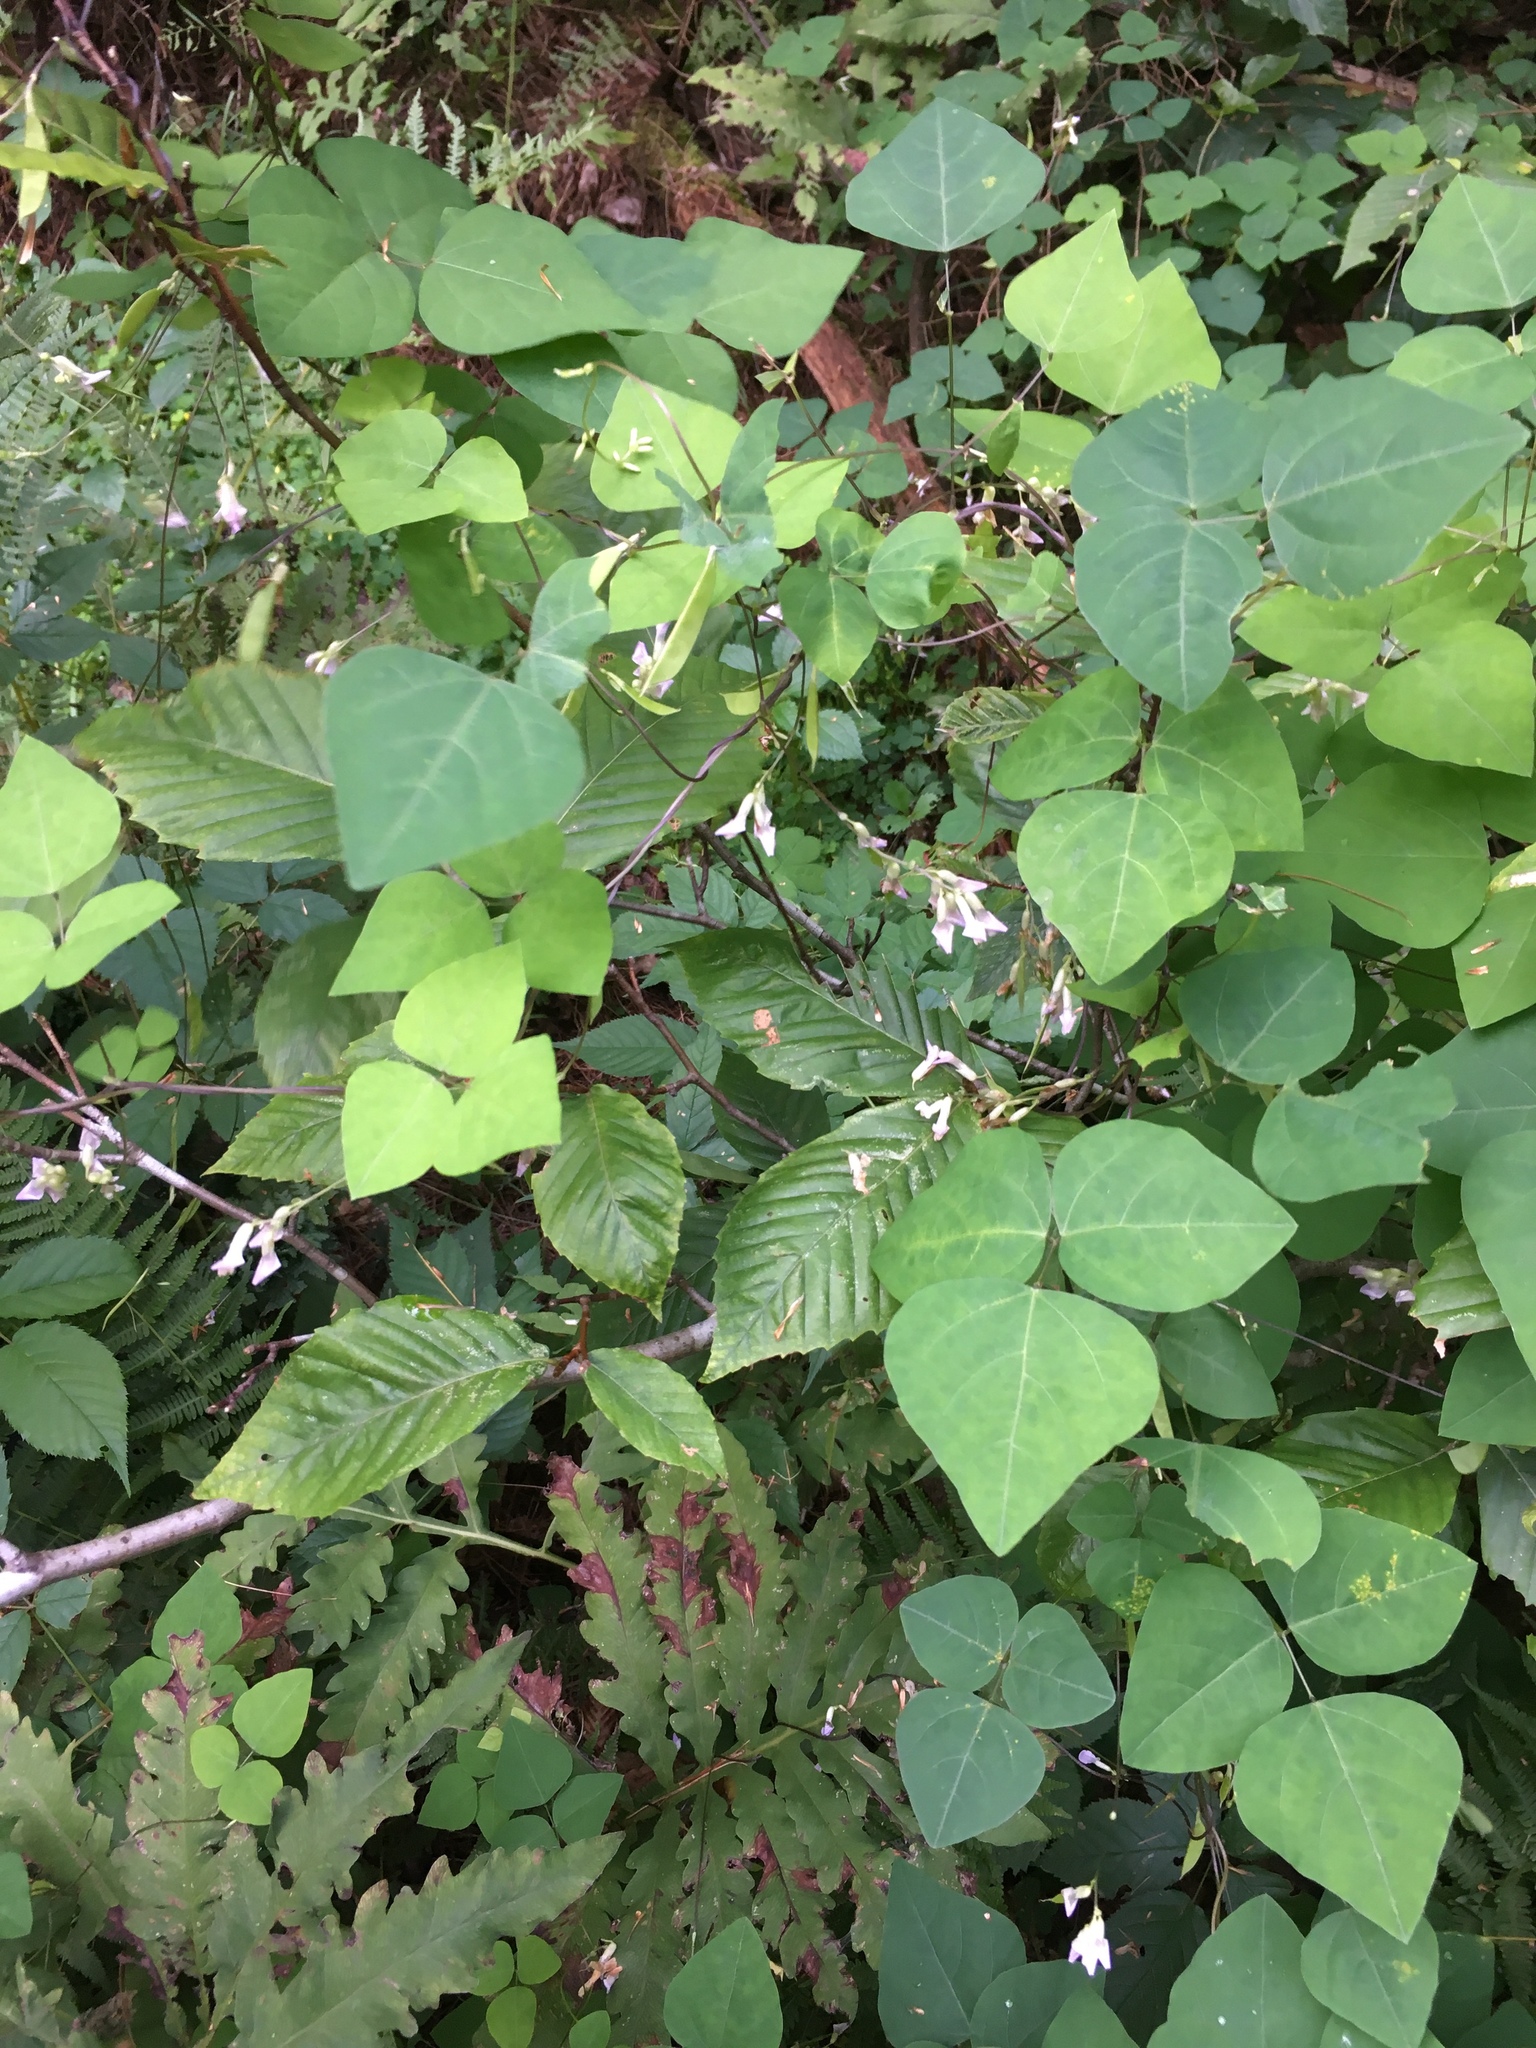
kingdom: Plantae
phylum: Tracheophyta
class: Magnoliopsida
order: Fabales
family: Fabaceae
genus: Amphicarpaea
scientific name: Amphicarpaea bracteata
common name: American hog peanut
